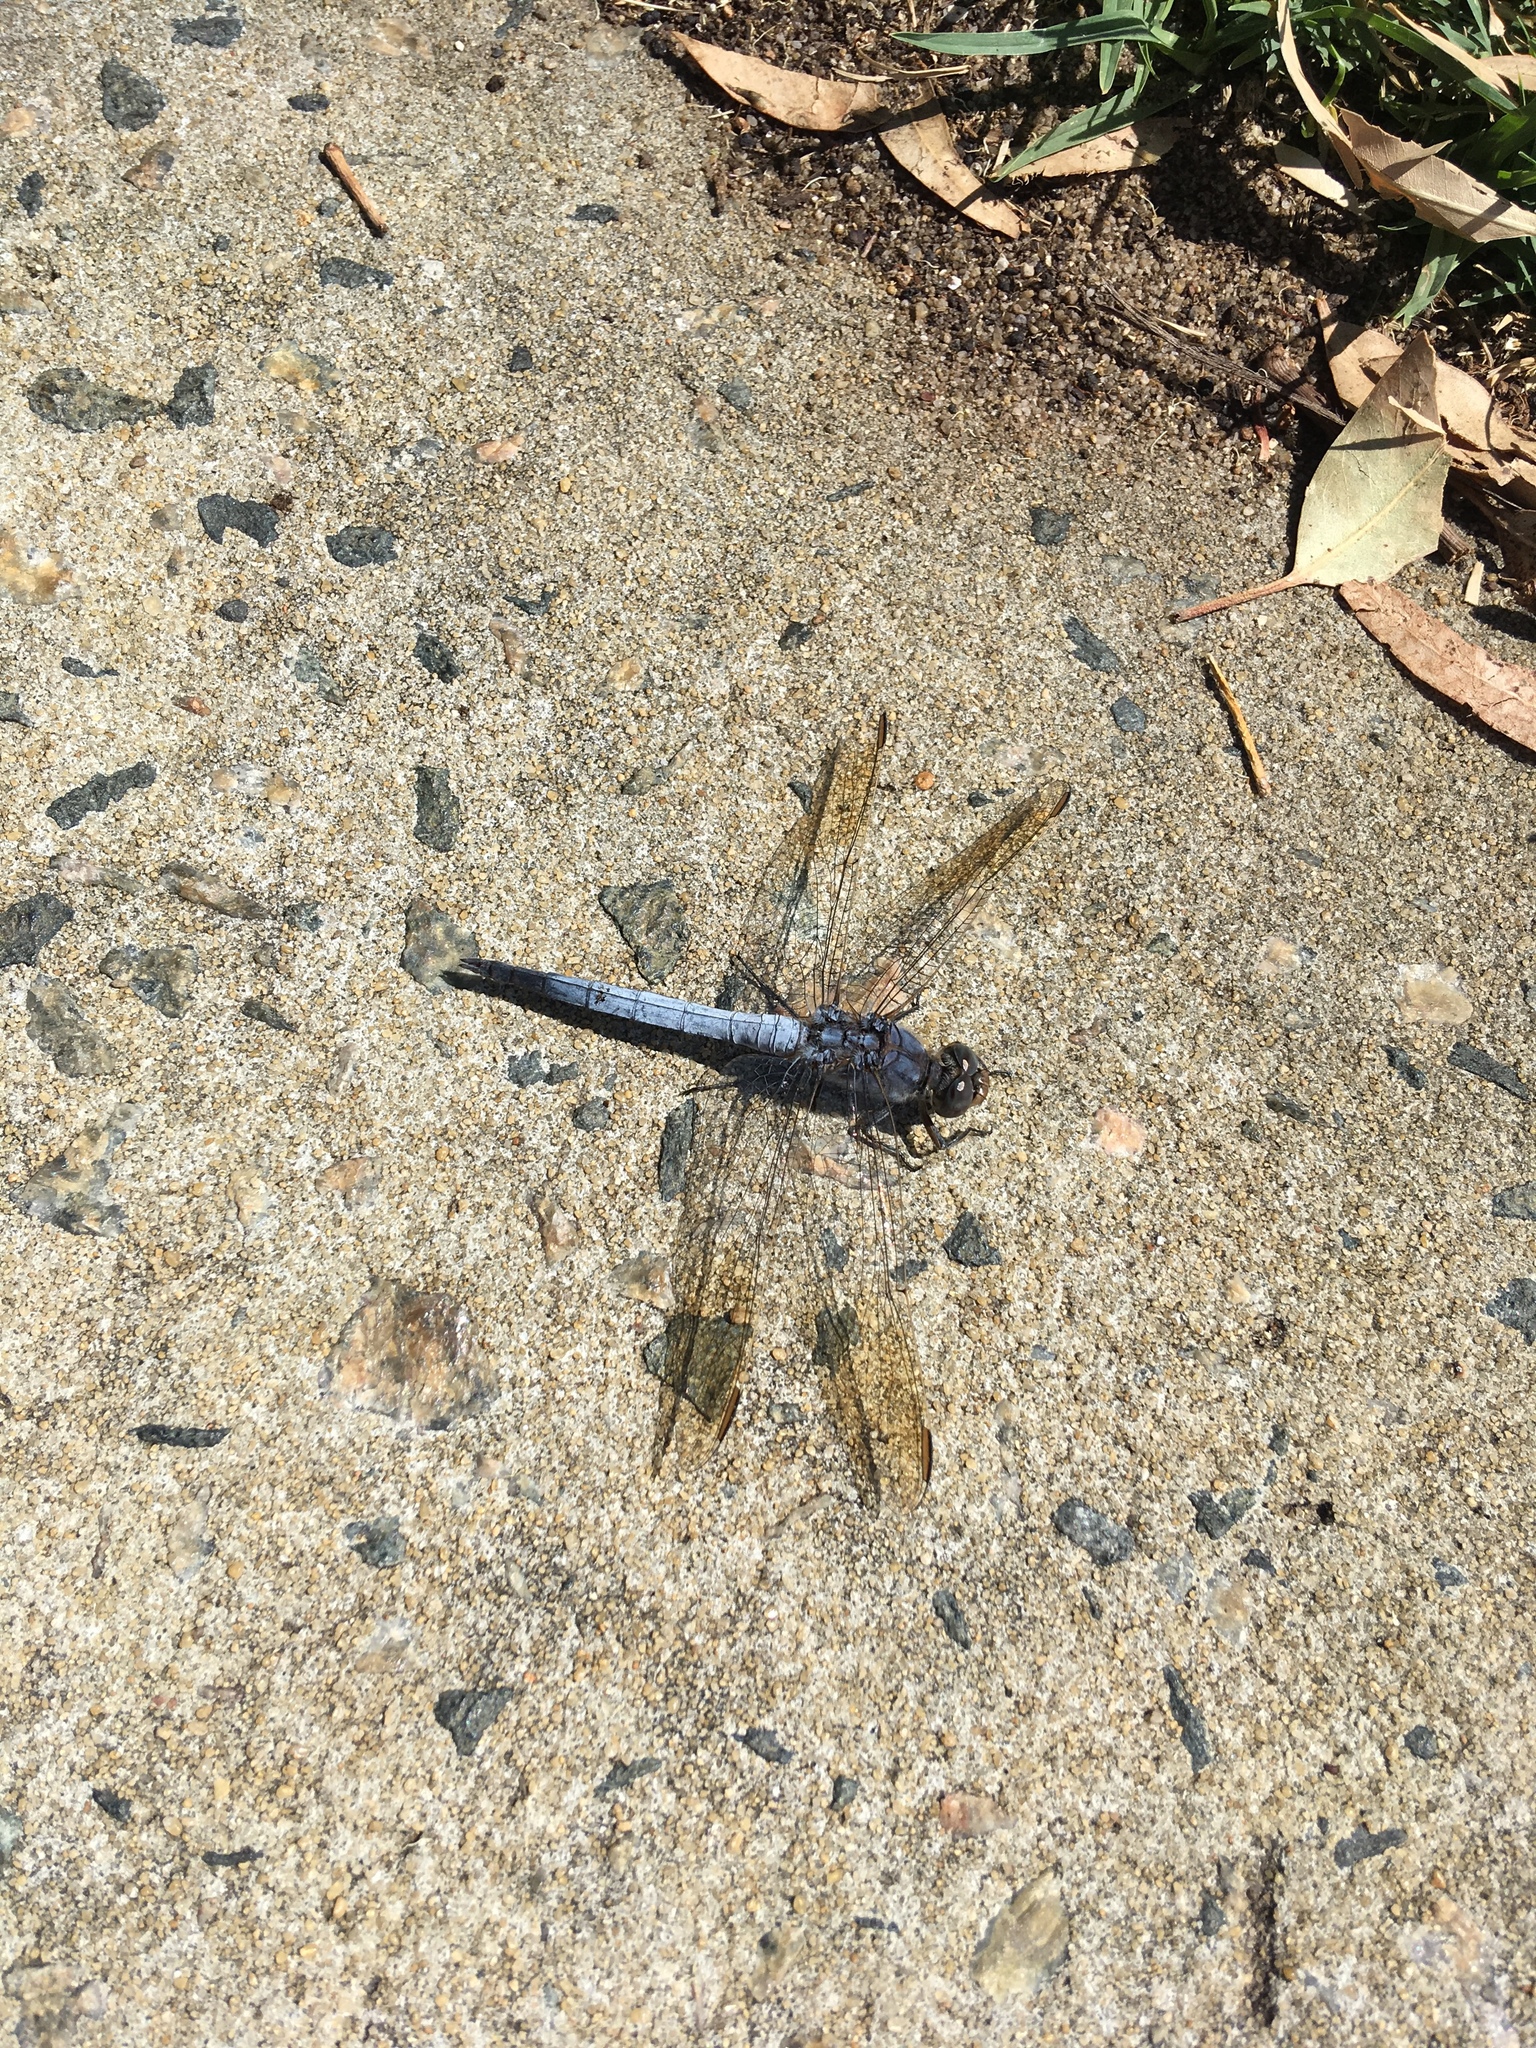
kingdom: Animalia
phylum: Arthropoda
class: Insecta
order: Odonata
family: Libellulidae
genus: Orthetrum
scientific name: Orthetrum caledonicum
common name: Blue skimmer
